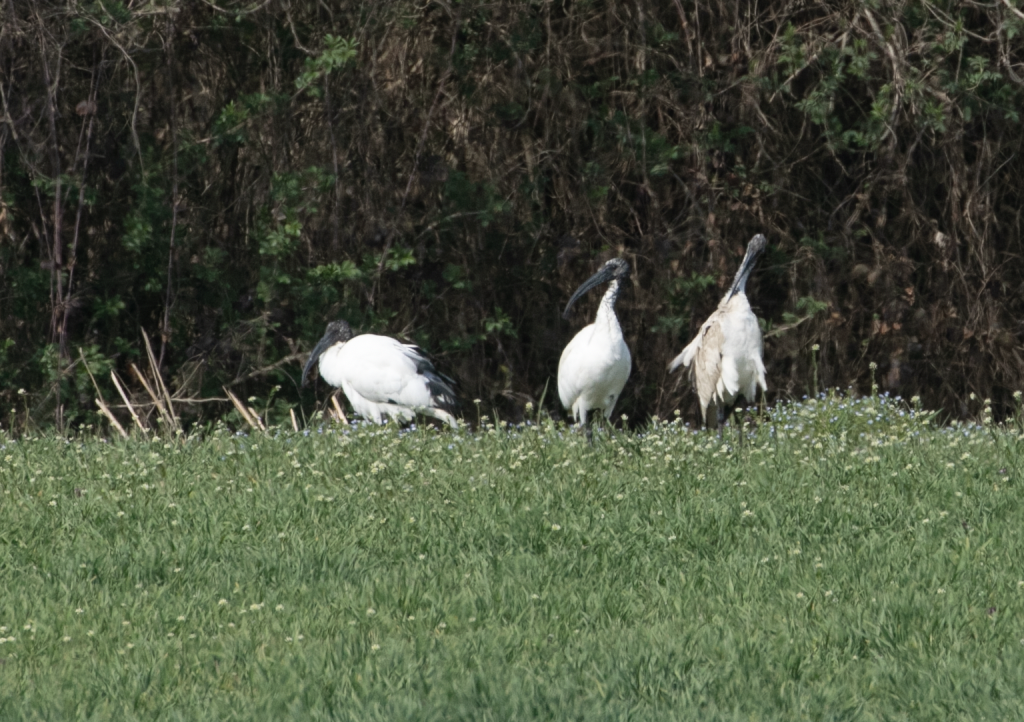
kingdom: Animalia
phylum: Chordata
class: Aves
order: Pelecaniformes
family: Threskiornithidae
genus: Threskiornis
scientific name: Threskiornis aethiopicus
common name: Sacred ibis
